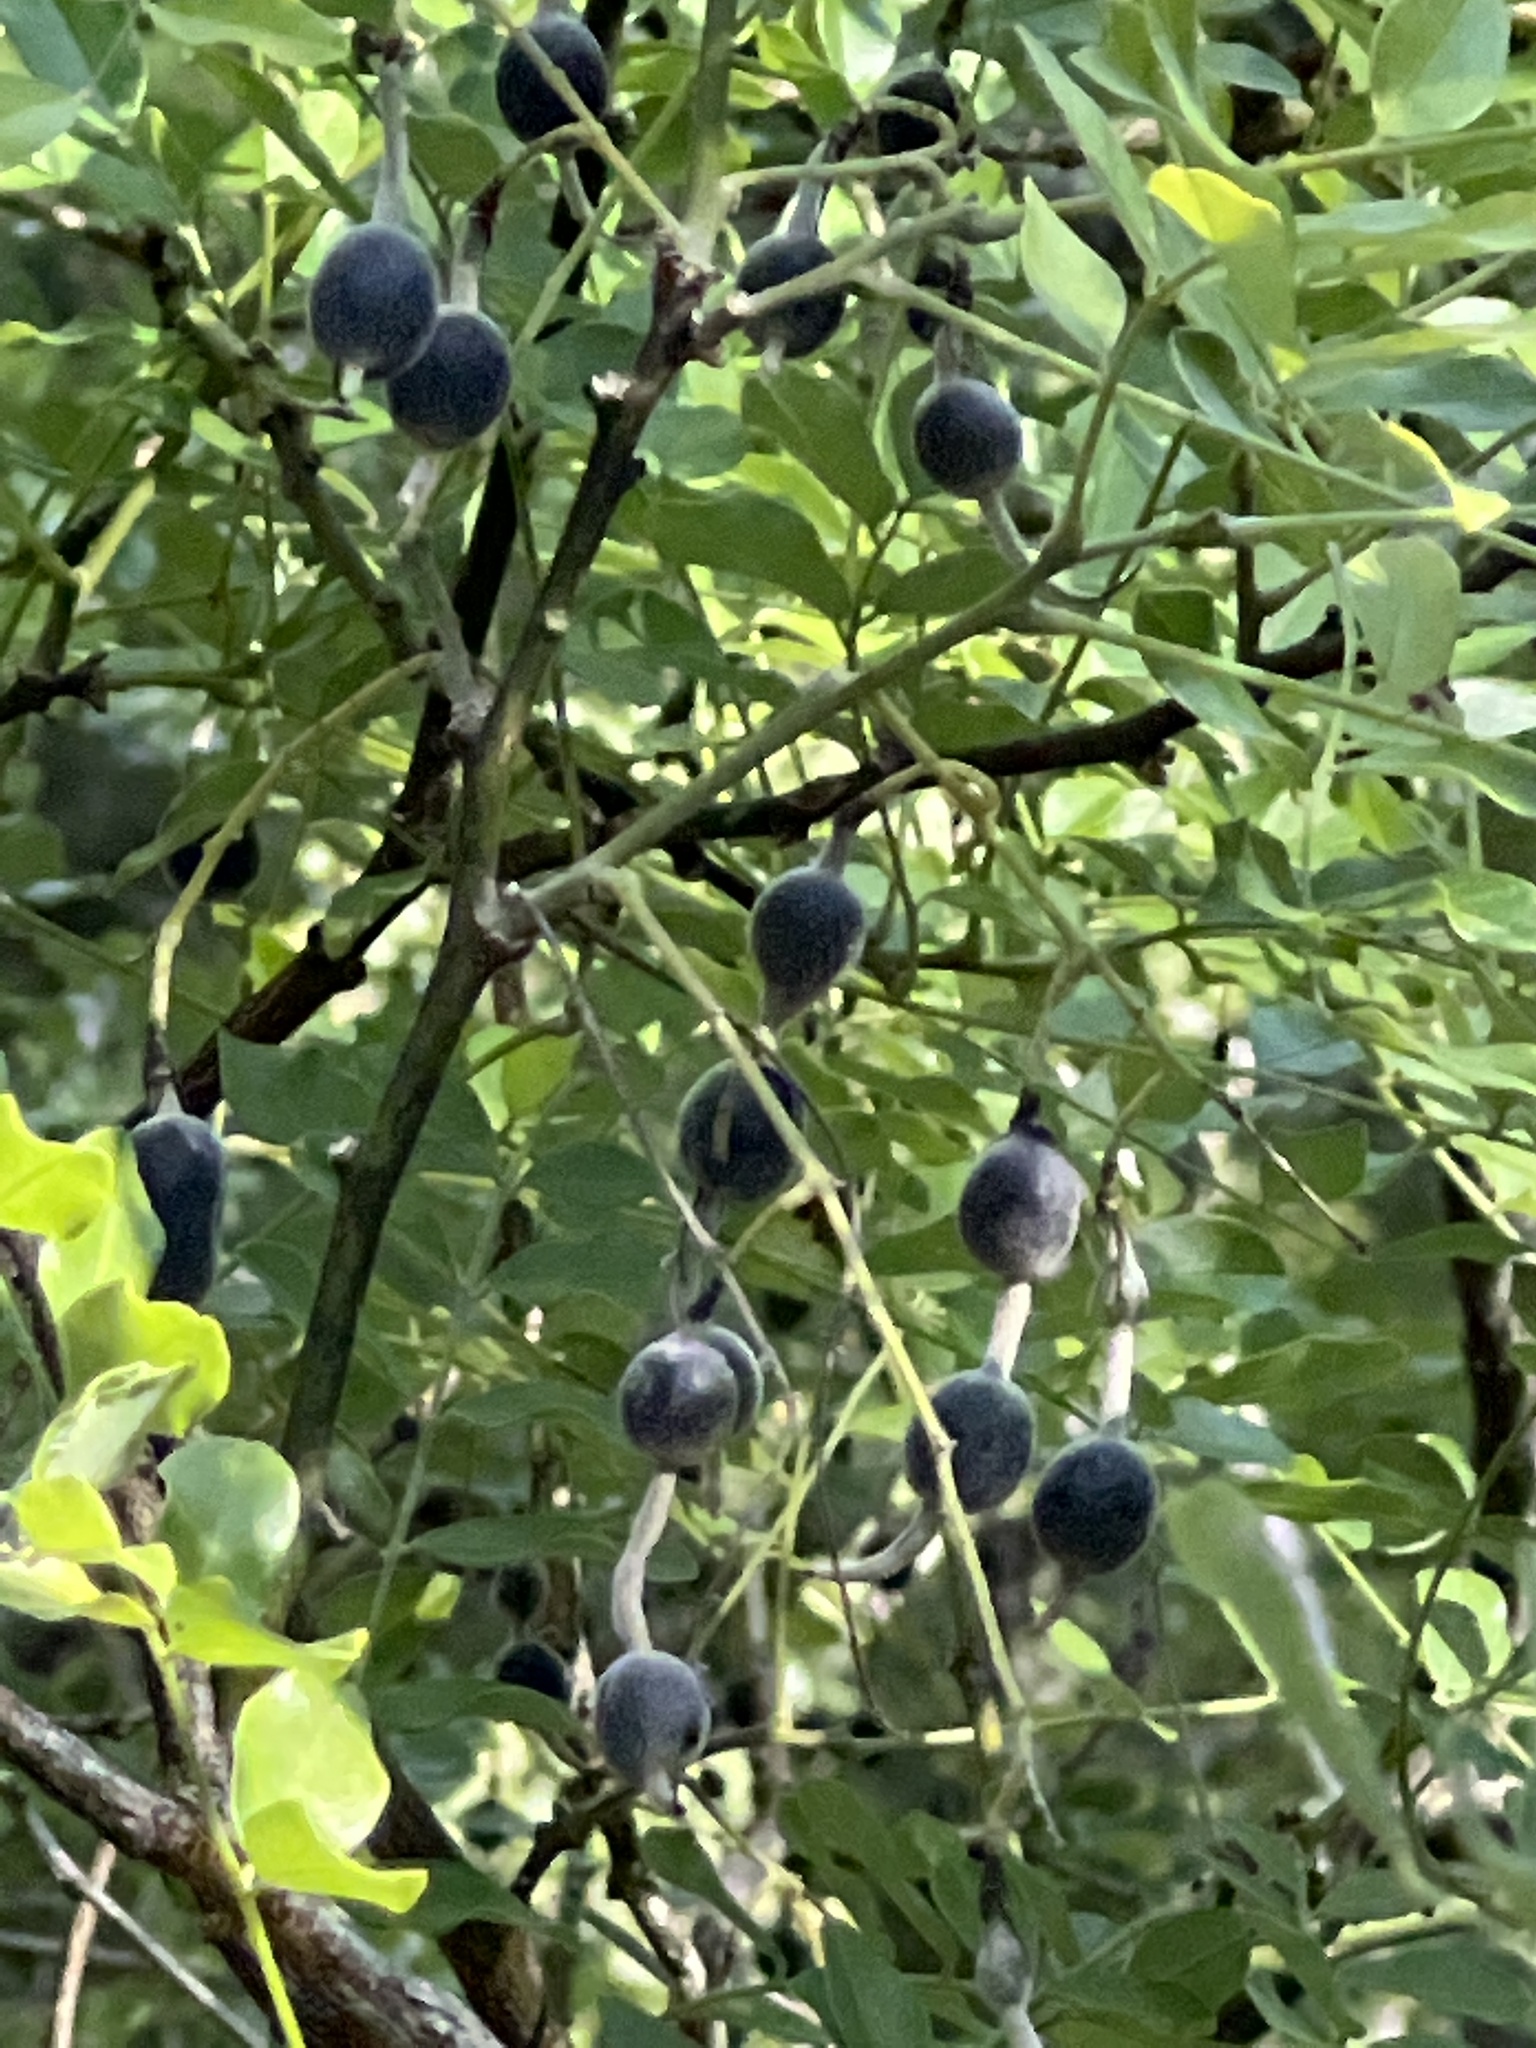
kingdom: Plantae
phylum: Tracheophyta
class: Magnoliopsida
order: Fabales
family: Fabaceae
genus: Styphnolobium
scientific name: Styphnolobium affine
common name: Texas sophora
